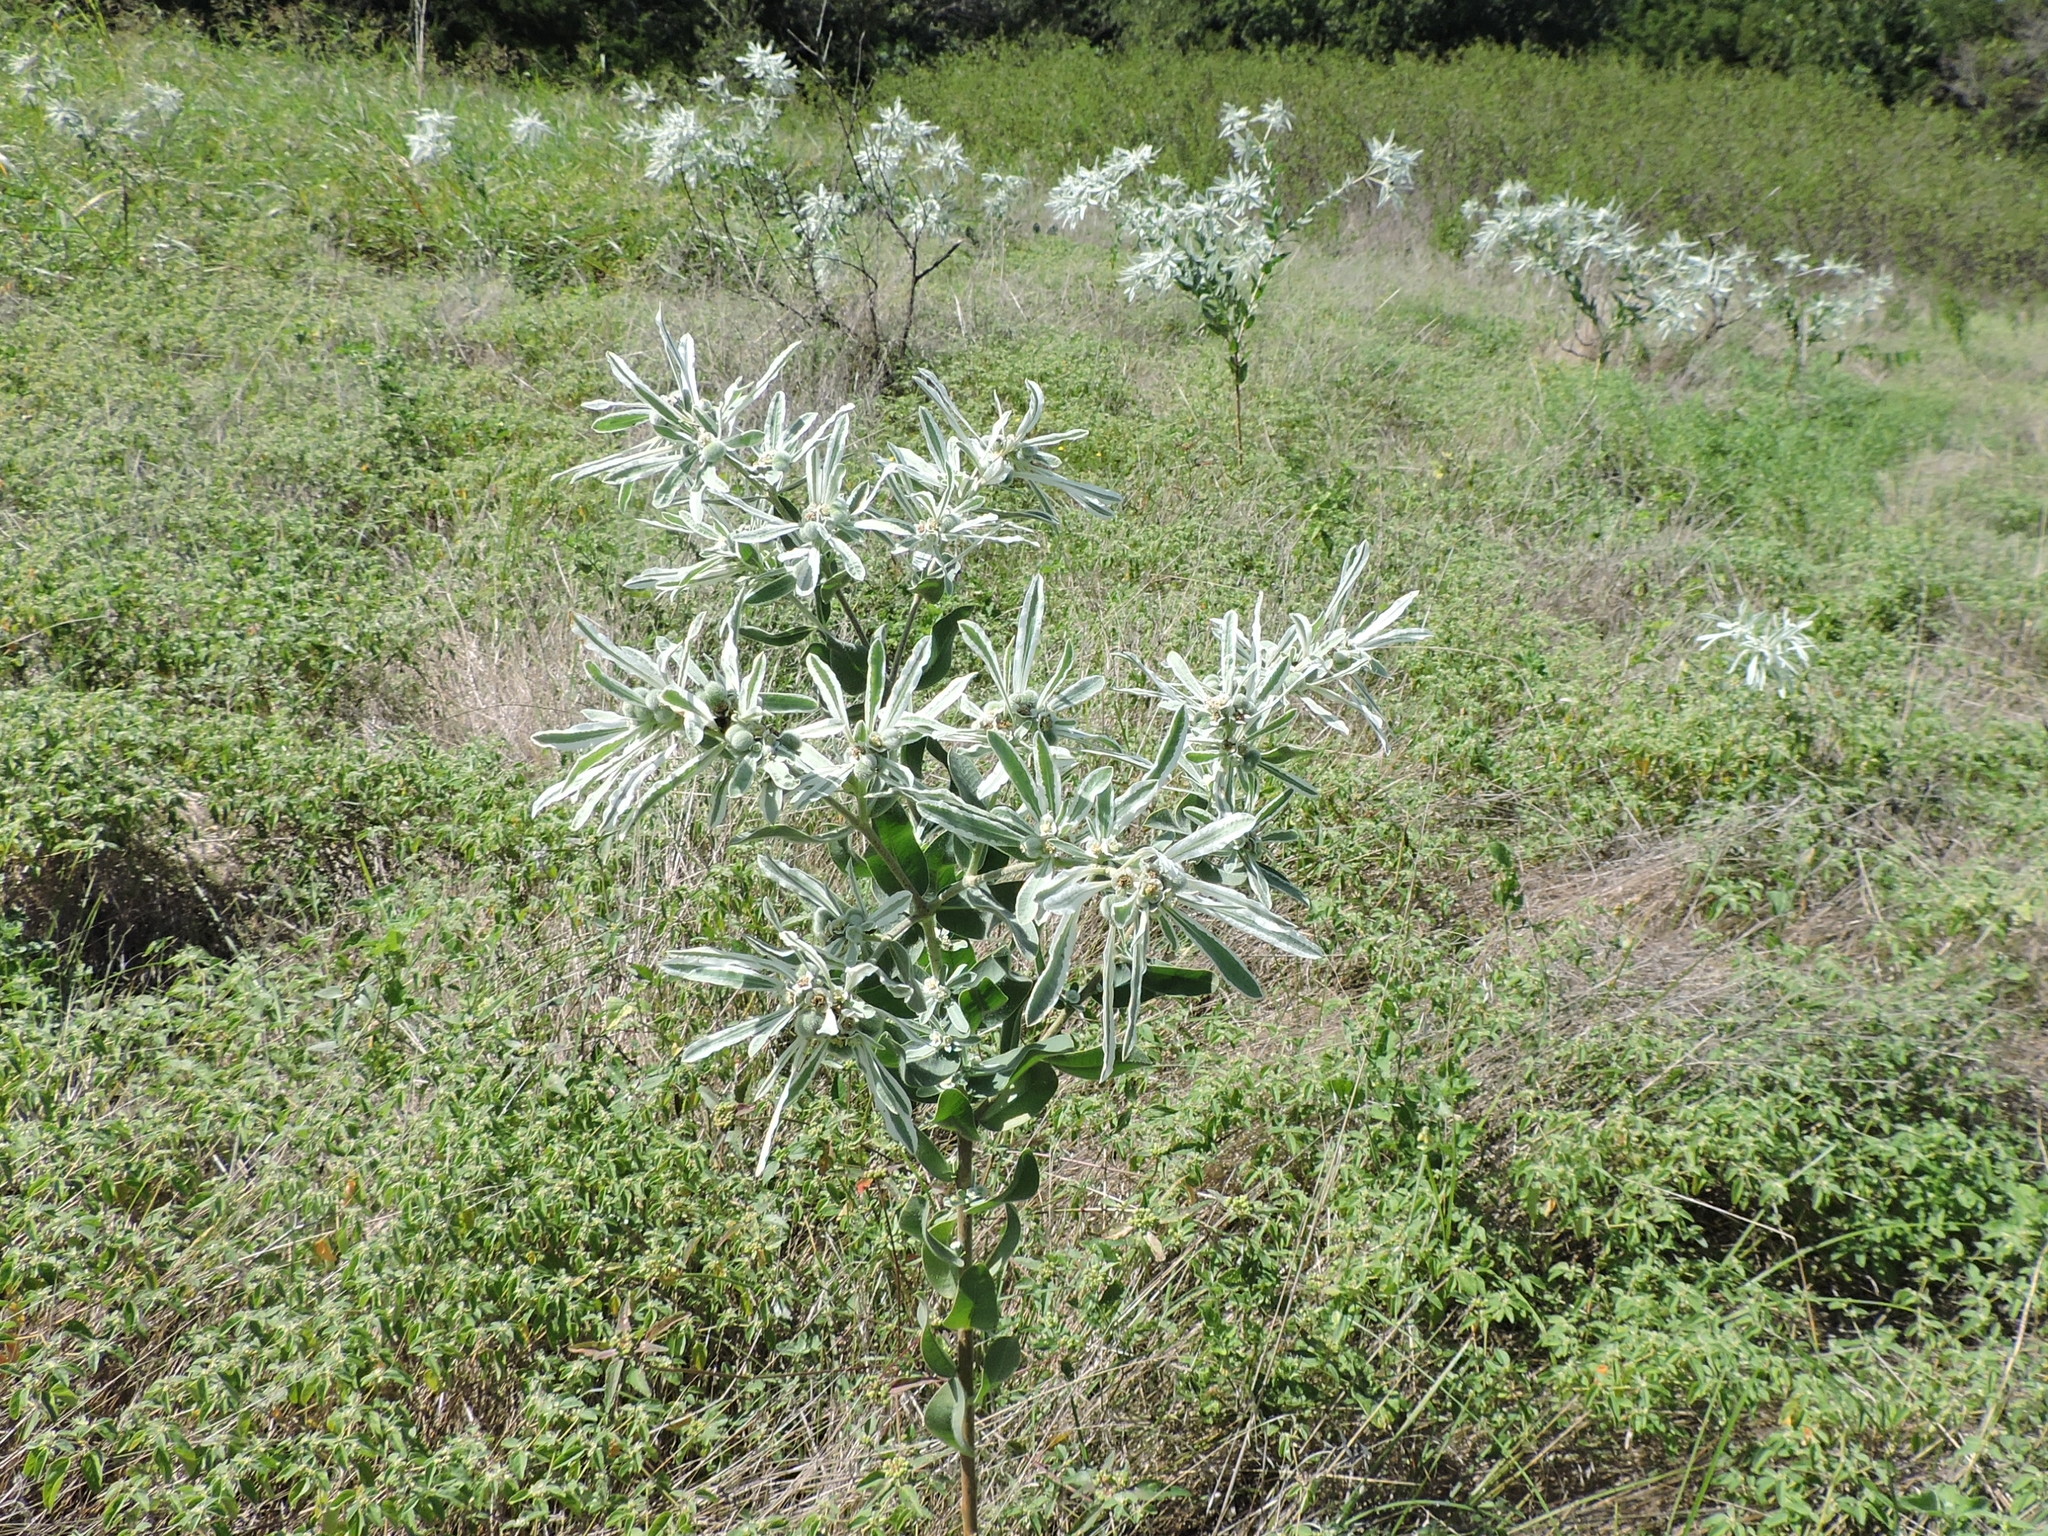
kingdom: Plantae
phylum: Tracheophyta
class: Magnoliopsida
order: Malpighiales
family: Euphorbiaceae
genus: Euphorbia
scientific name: Euphorbia bicolor
